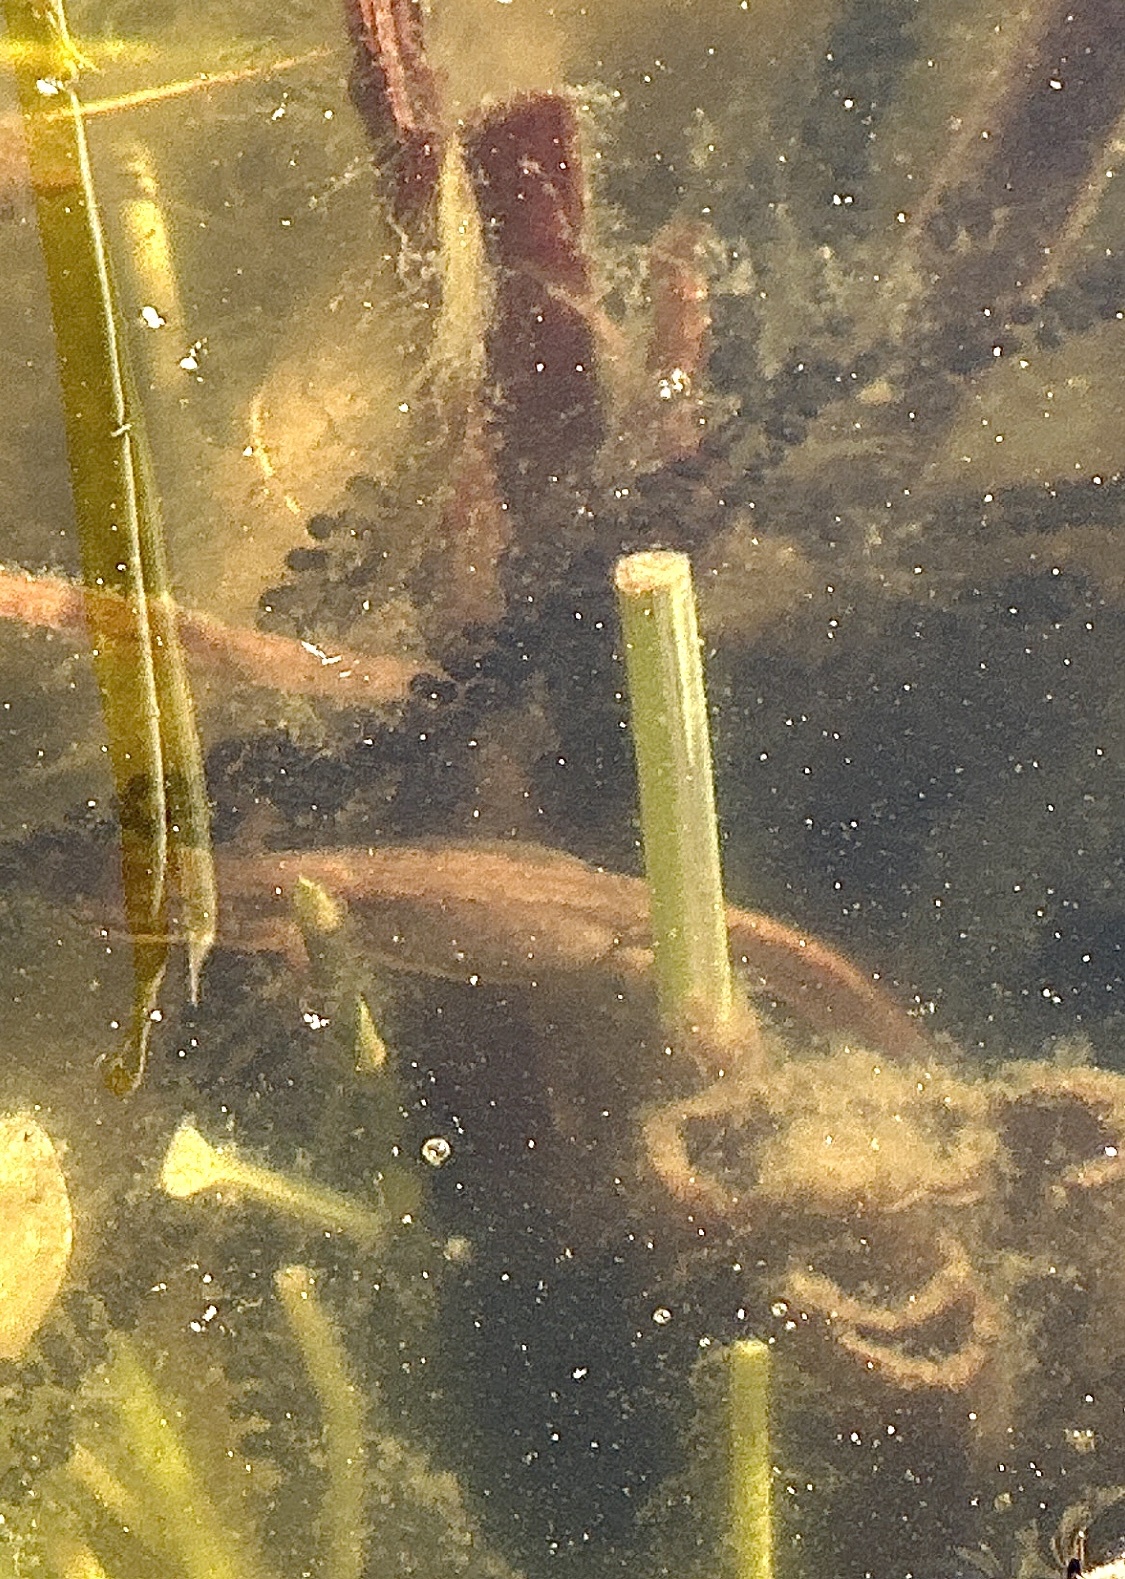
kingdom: Animalia
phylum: Chordata
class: Amphibia
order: Caudata
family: Salamandridae
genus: Lissotriton
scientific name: Lissotriton vulgaris
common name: Smooth newt
